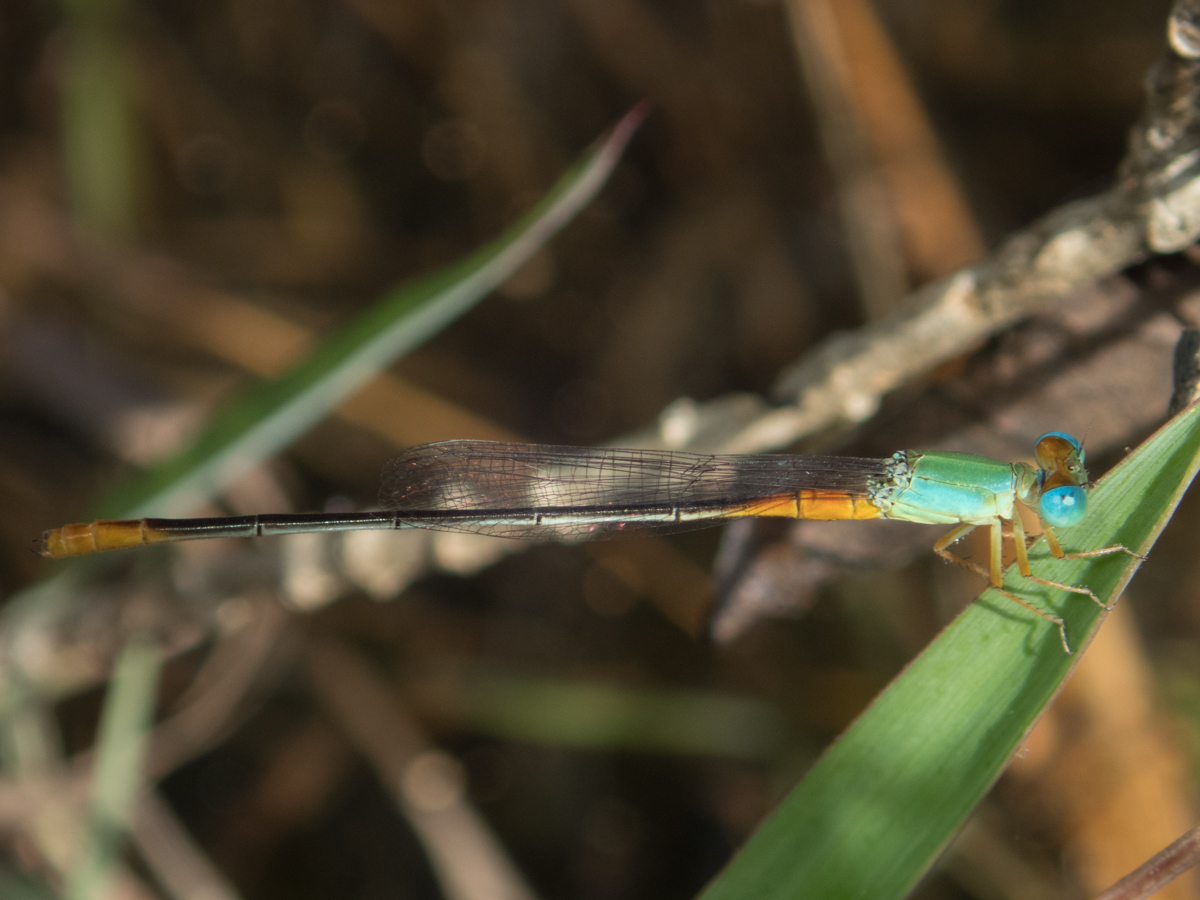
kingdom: Animalia
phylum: Arthropoda
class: Insecta
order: Odonata
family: Coenagrionidae
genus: Ceriagrion
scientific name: Ceriagrion cerinorubellum
